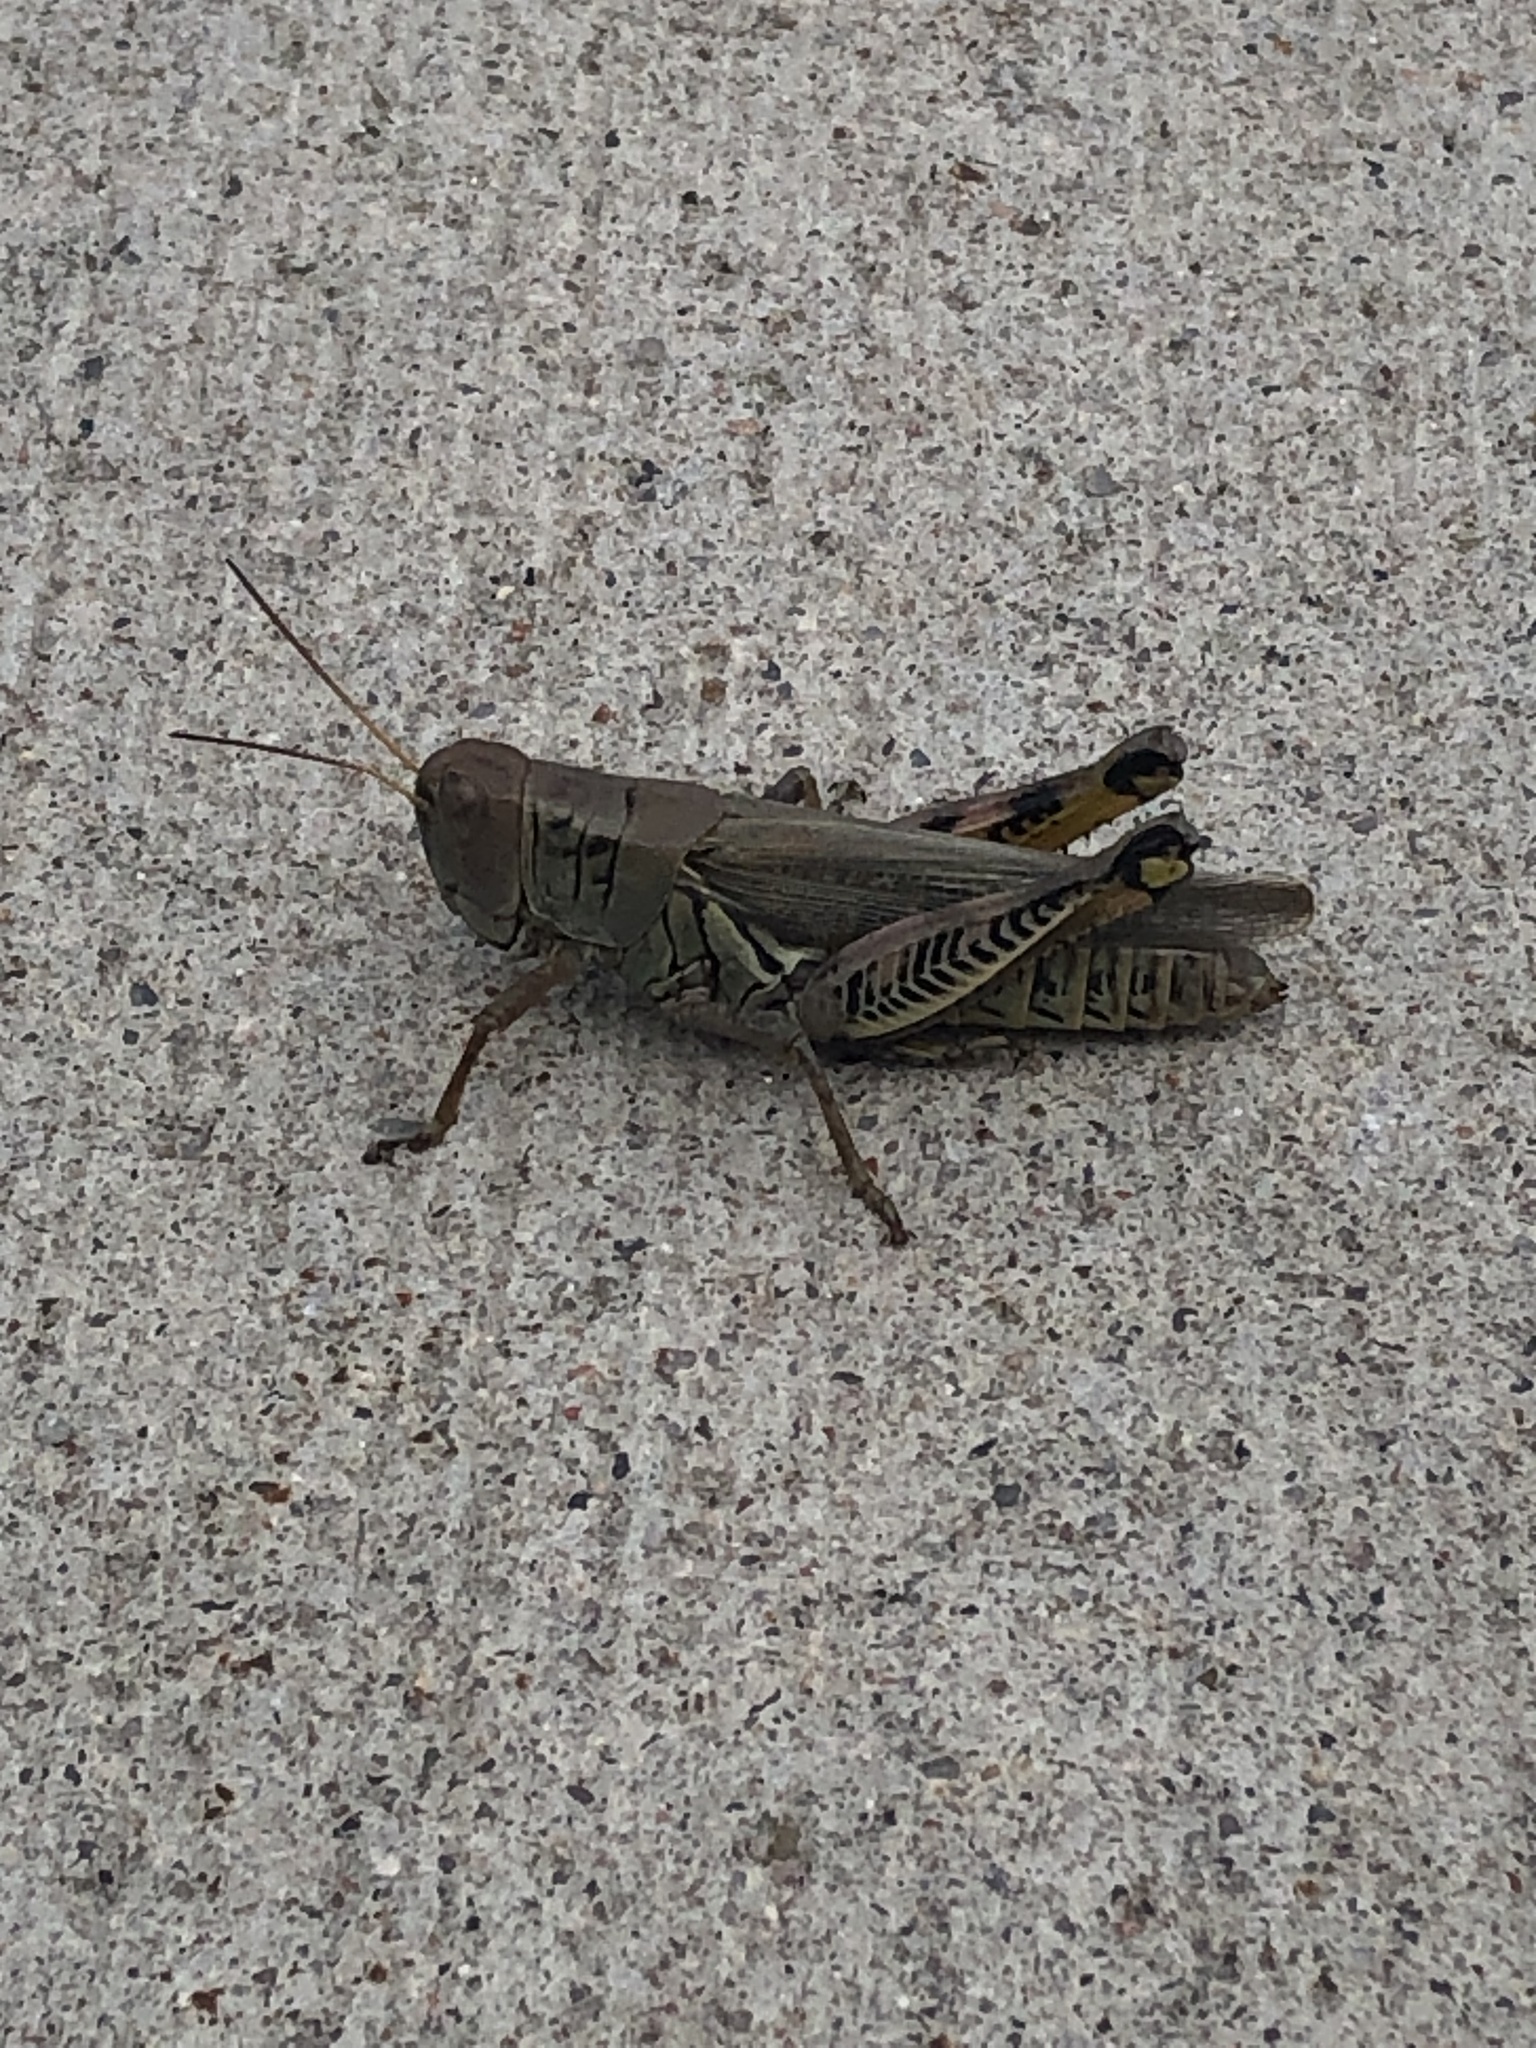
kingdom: Animalia
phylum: Arthropoda
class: Insecta
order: Orthoptera
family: Acrididae
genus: Melanoplus
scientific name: Melanoplus differentialis
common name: Differential grasshopper
